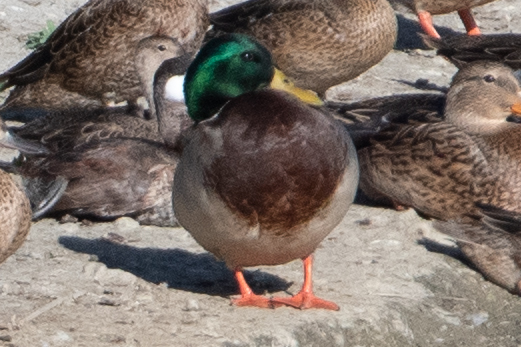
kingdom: Animalia
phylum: Chordata
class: Aves
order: Anseriformes
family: Anatidae
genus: Anas
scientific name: Anas platyrhynchos
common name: Mallard
